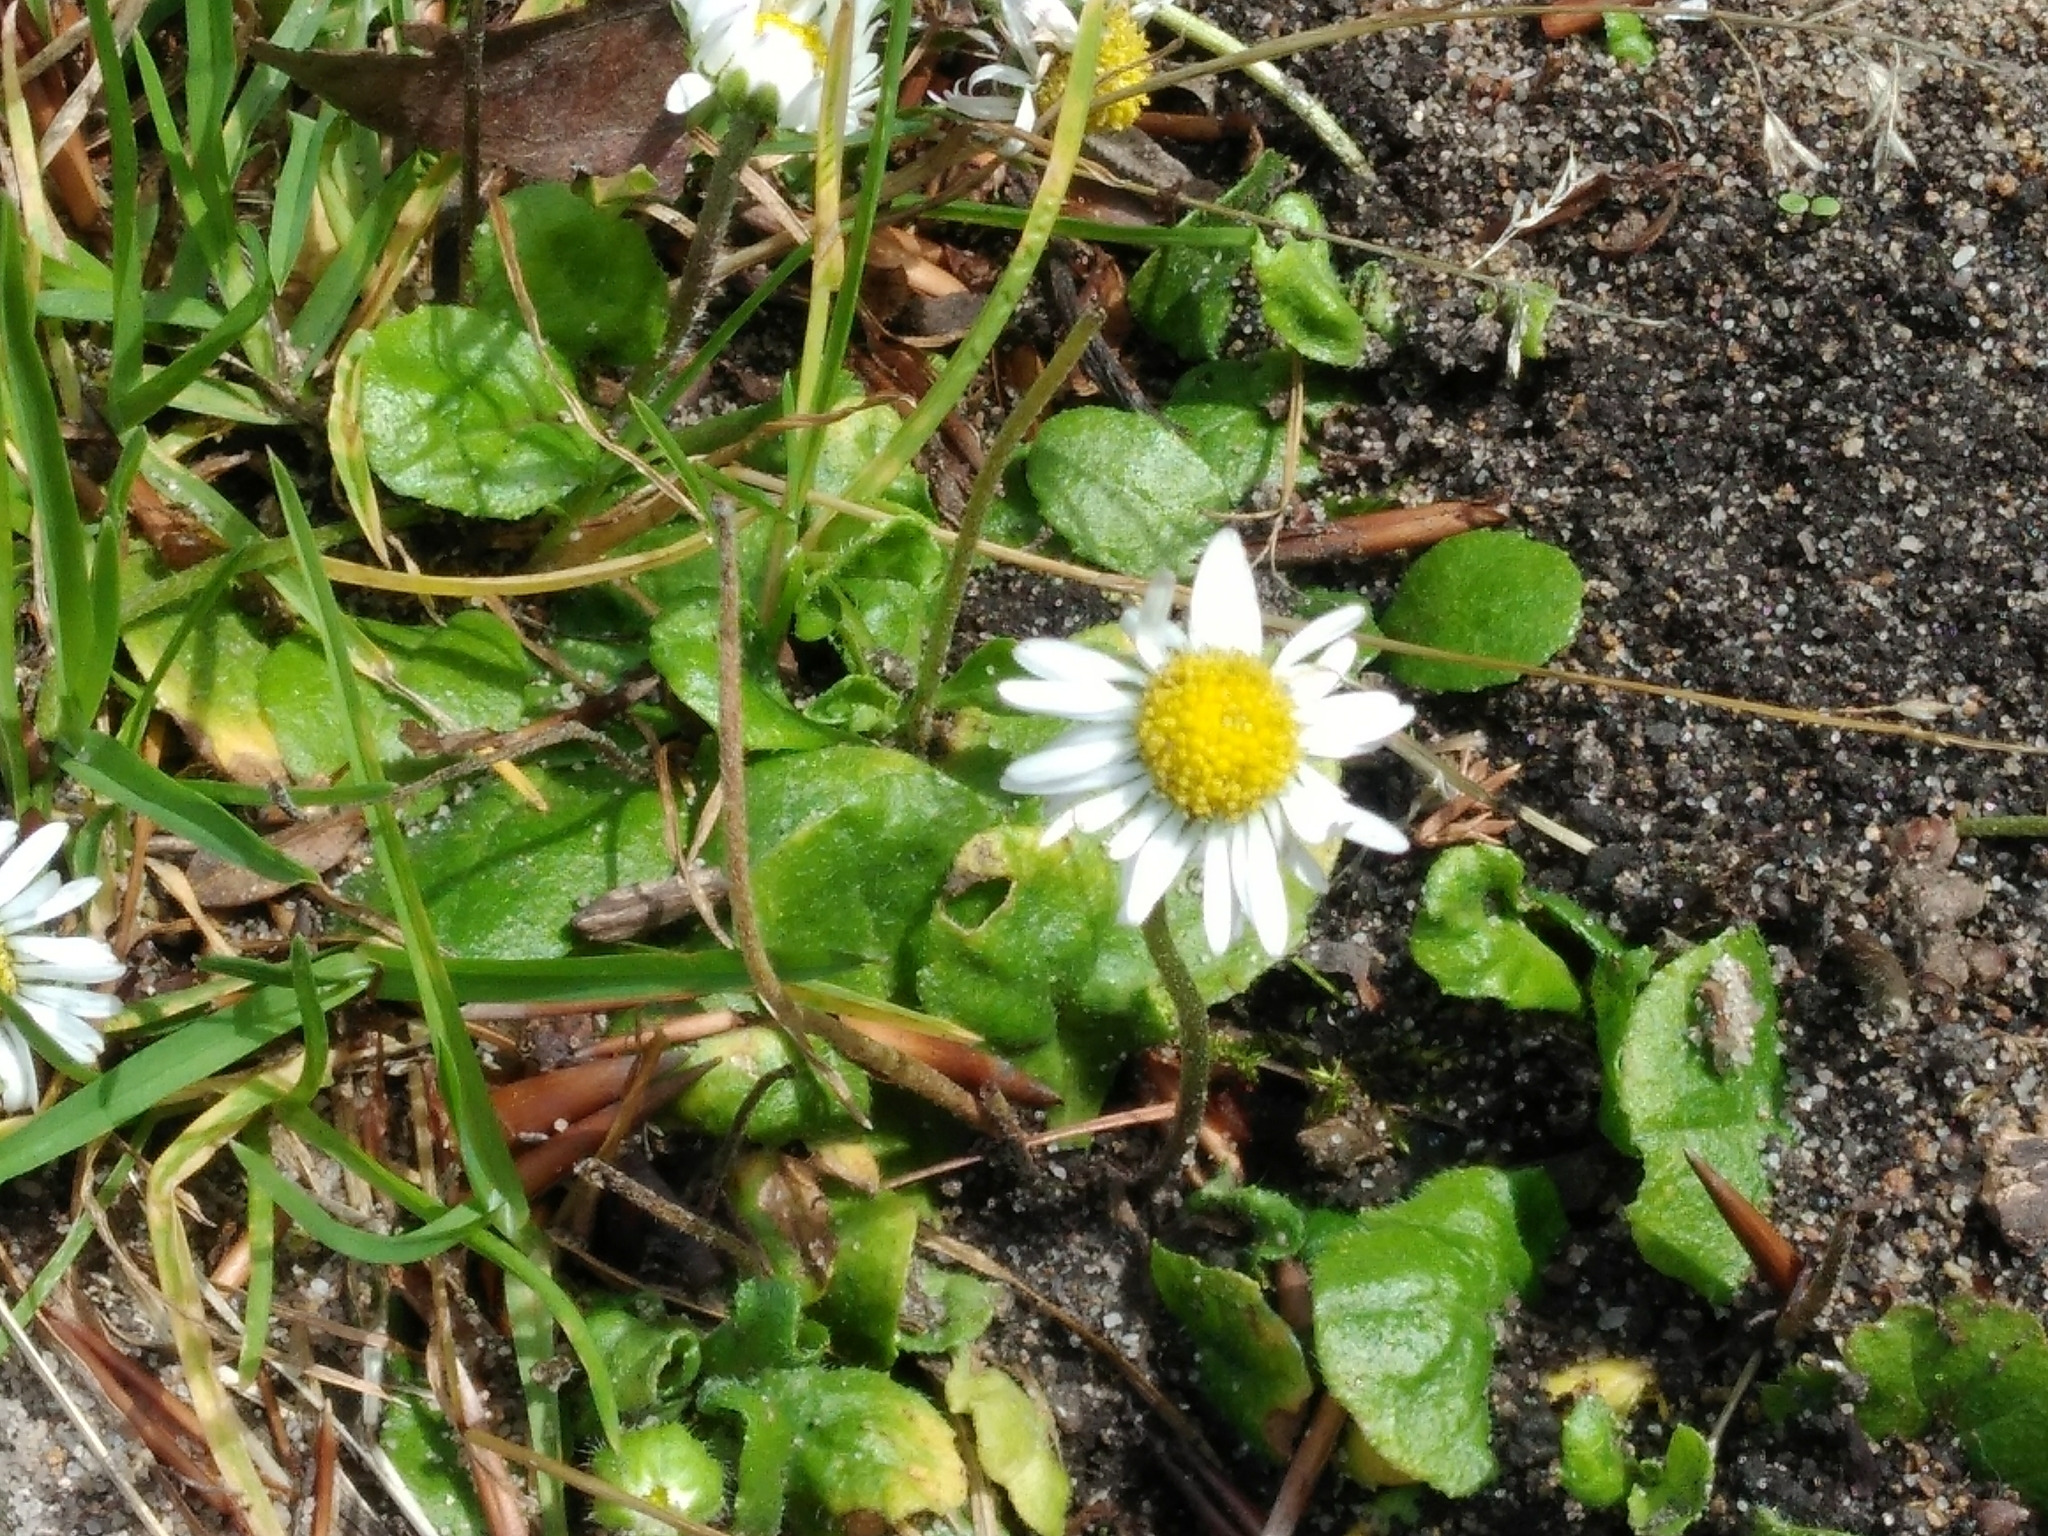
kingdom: Plantae
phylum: Tracheophyta
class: Magnoliopsida
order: Asterales
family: Asteraceae
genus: Bellis
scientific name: Bellis perennis
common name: Lawndaisy
